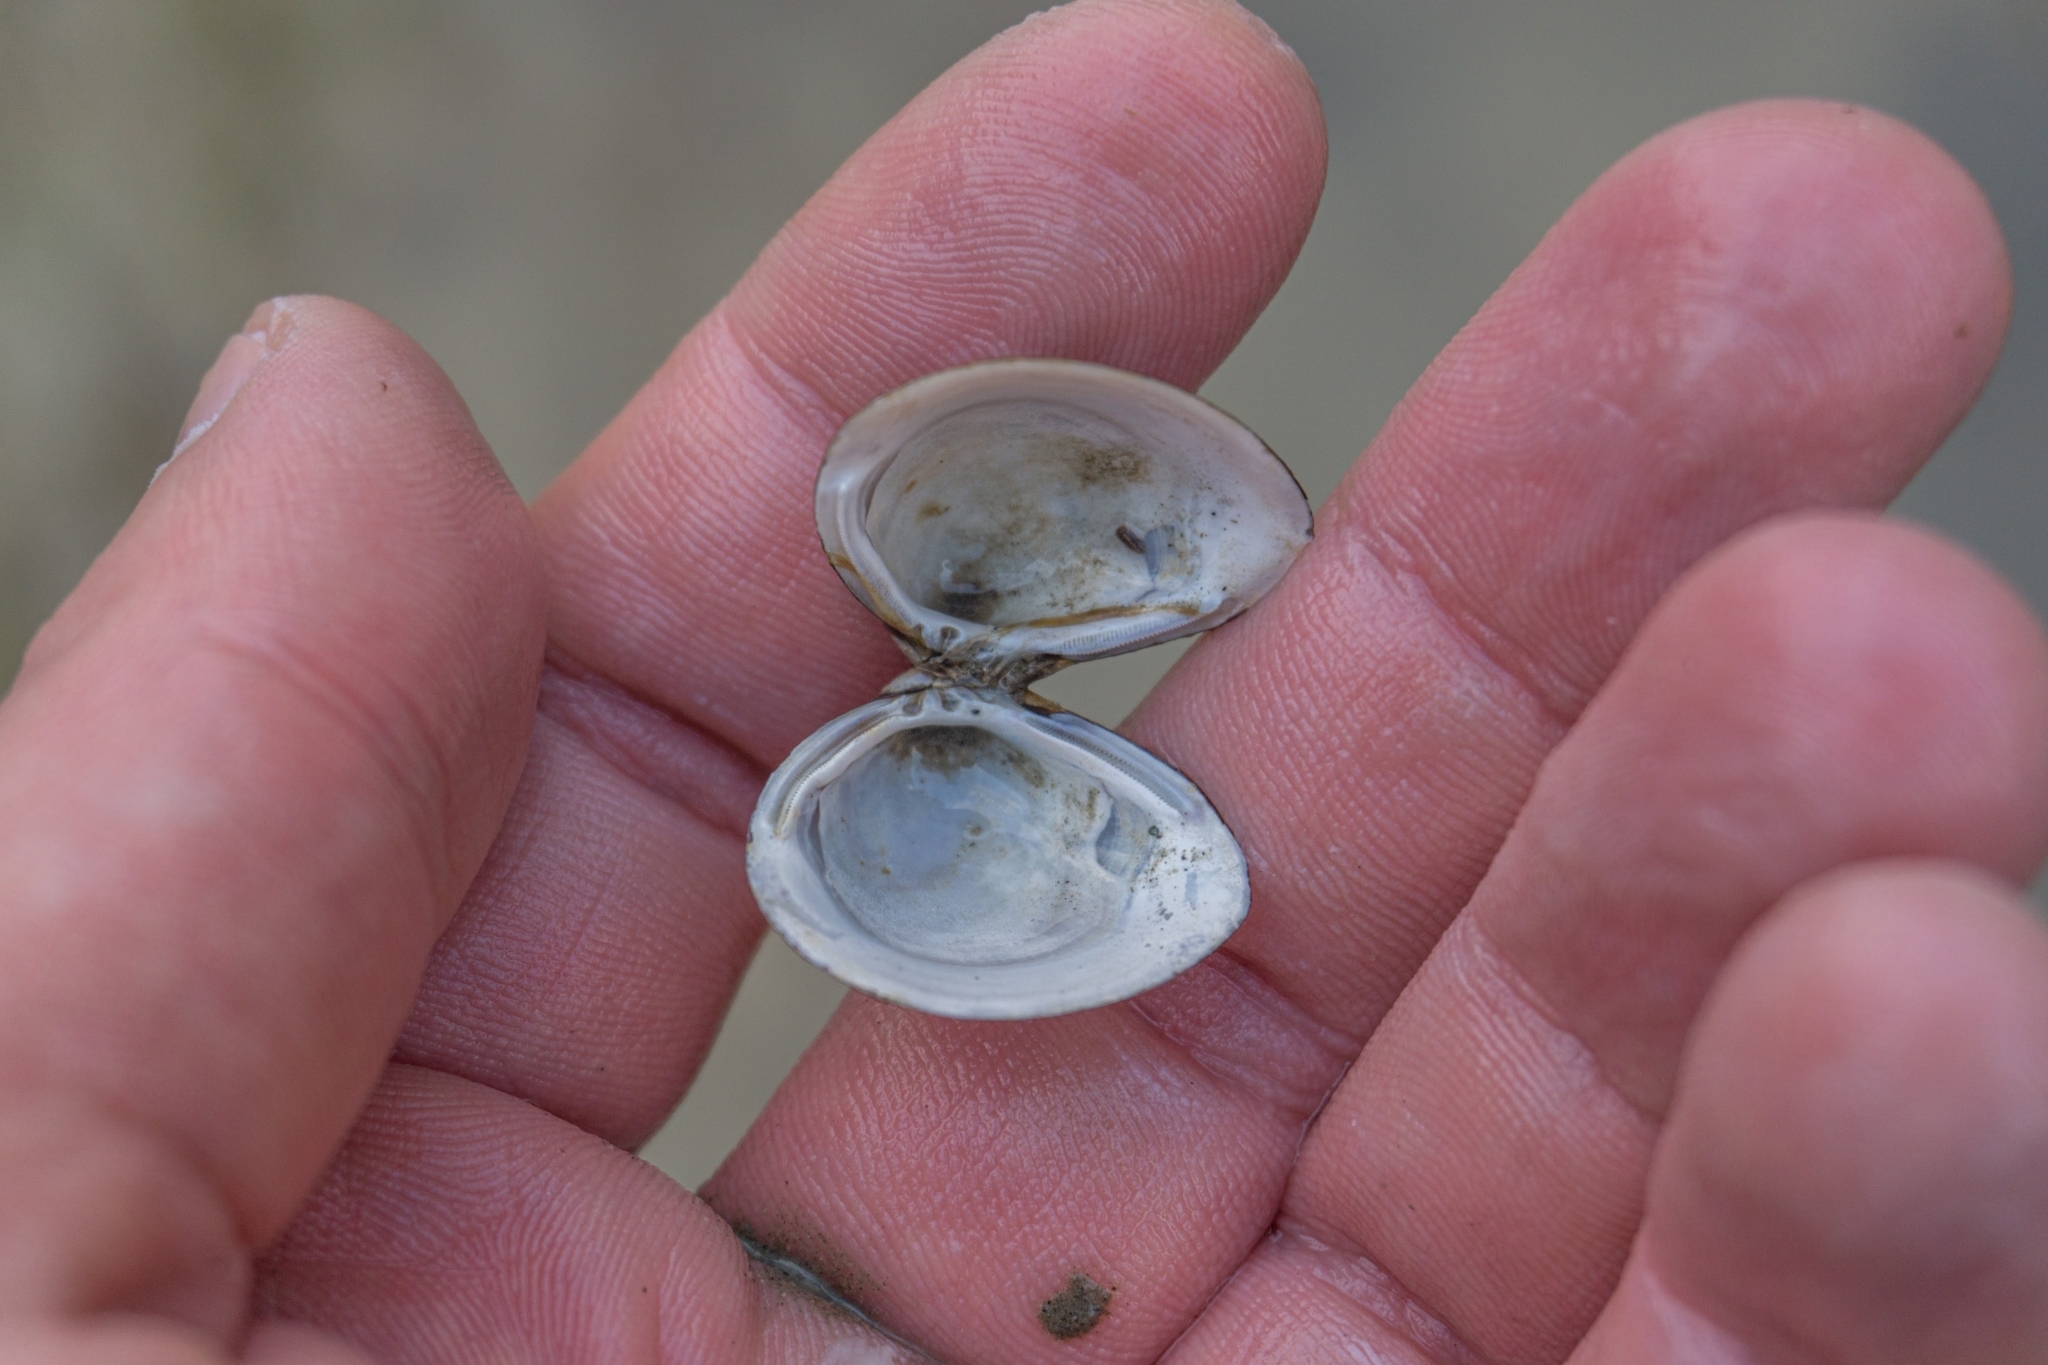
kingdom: Animalia
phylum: Mollusca
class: Bivalvia
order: Venerida
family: Cyrenidae
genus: Corbicula
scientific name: Corbicula fluminea
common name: Asian clam
